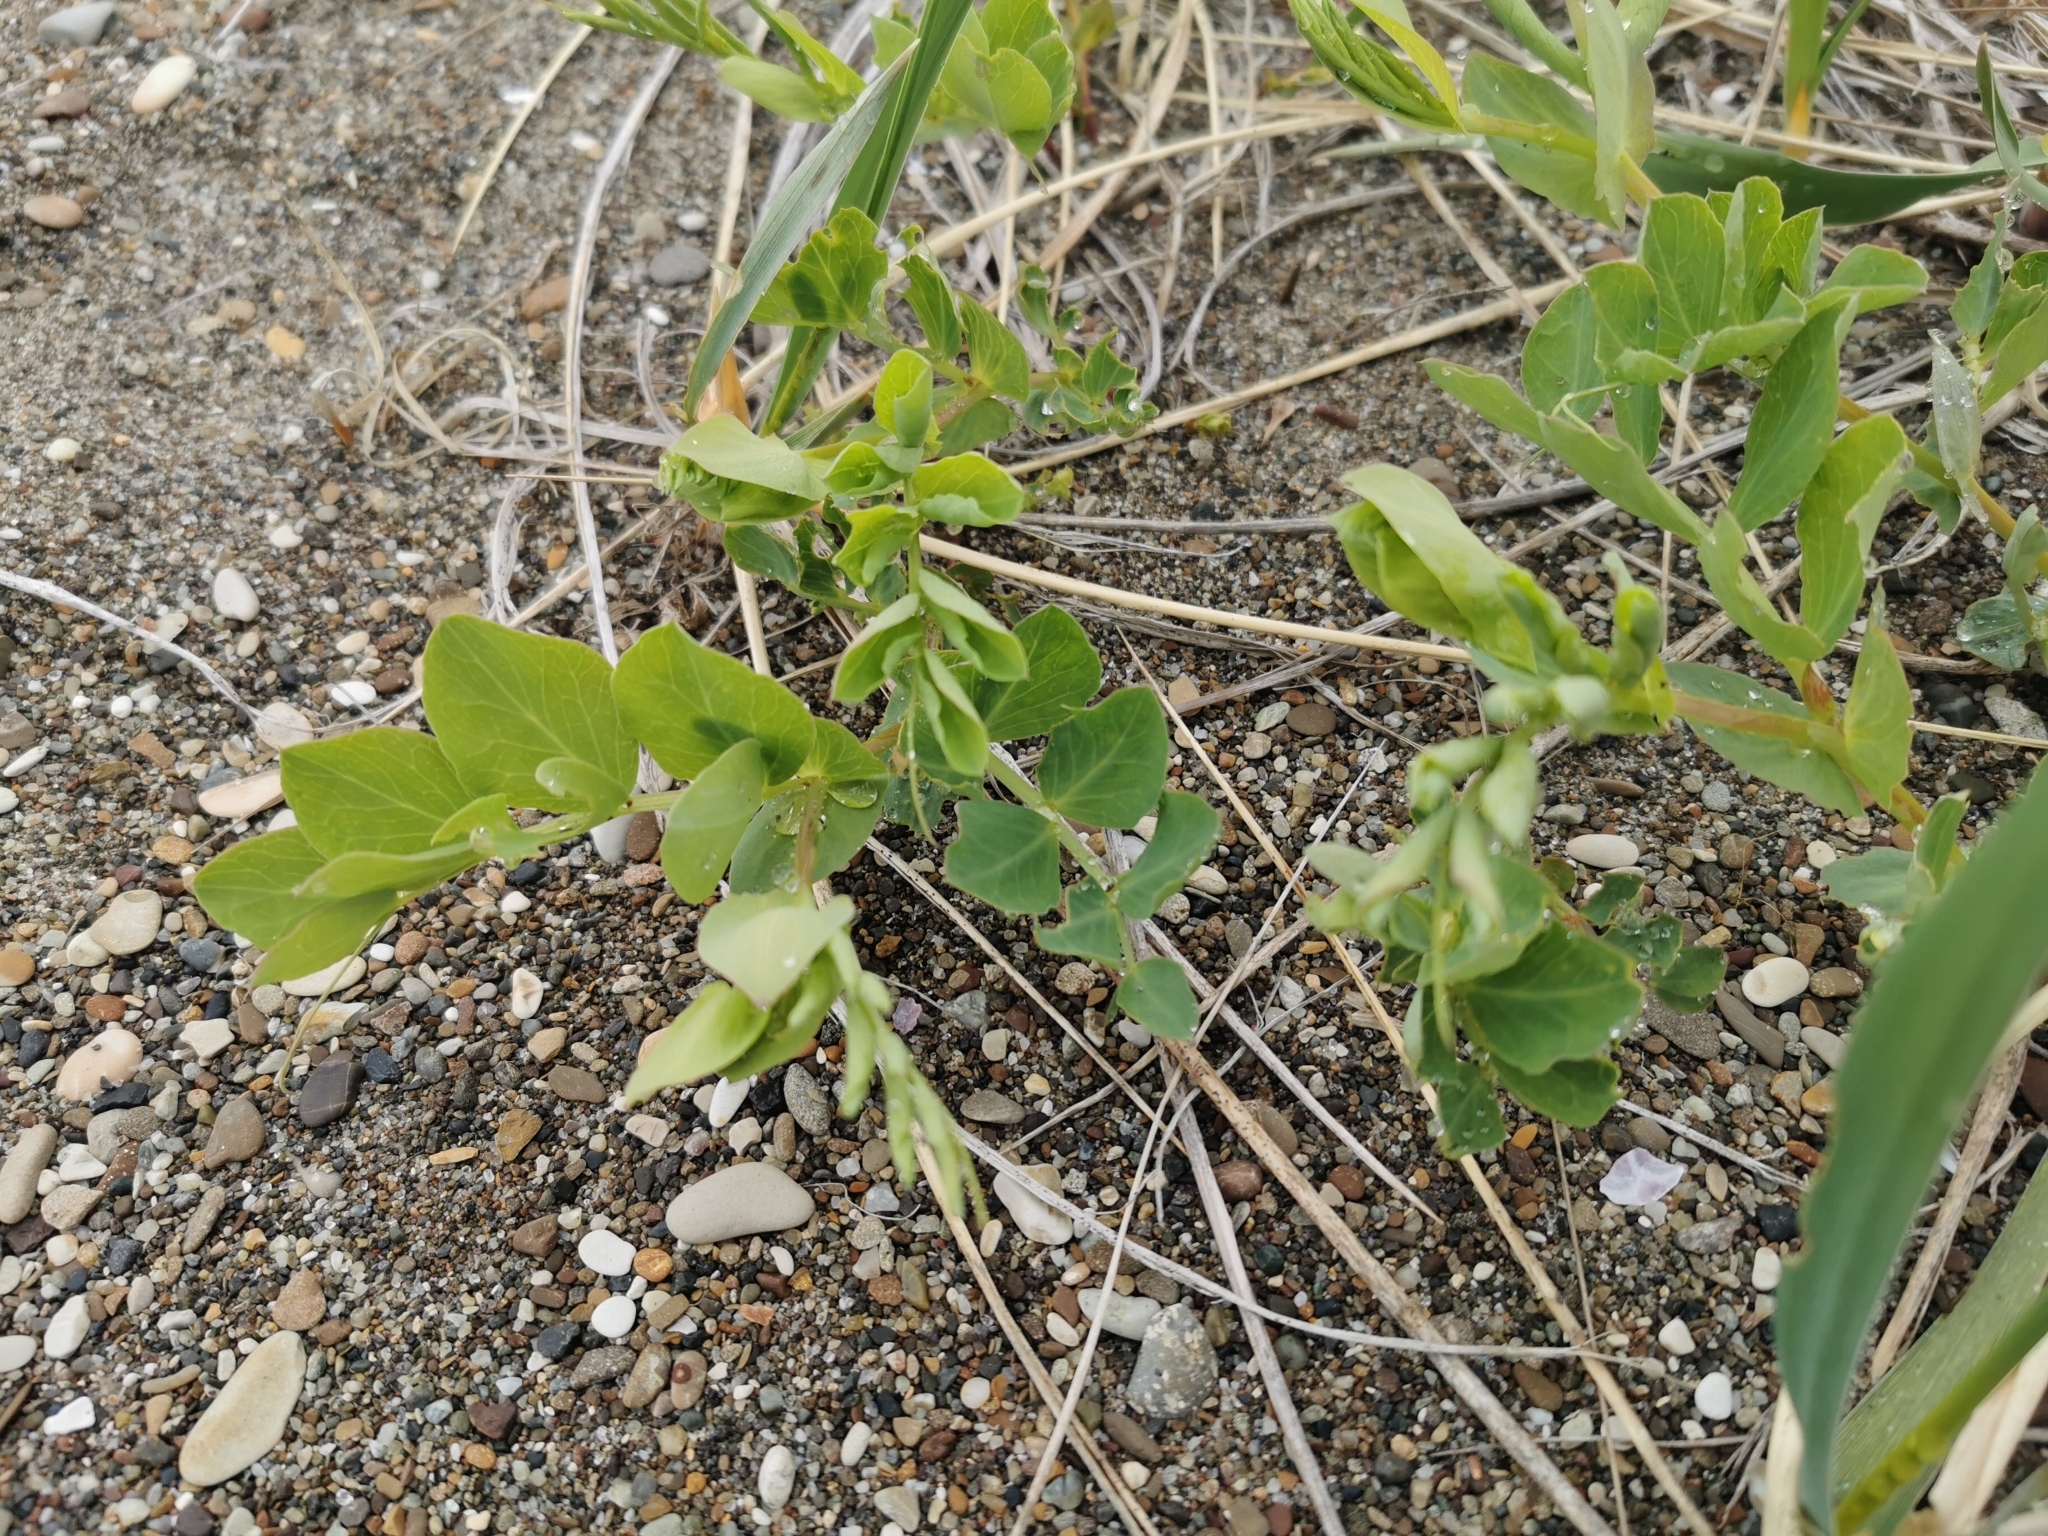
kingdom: Plantae
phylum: Tracheophyta
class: Magnoliopsida
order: Fabales
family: Fabaceae
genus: Lathyrus
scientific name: Lathyrus japonicus
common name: Sea pea
